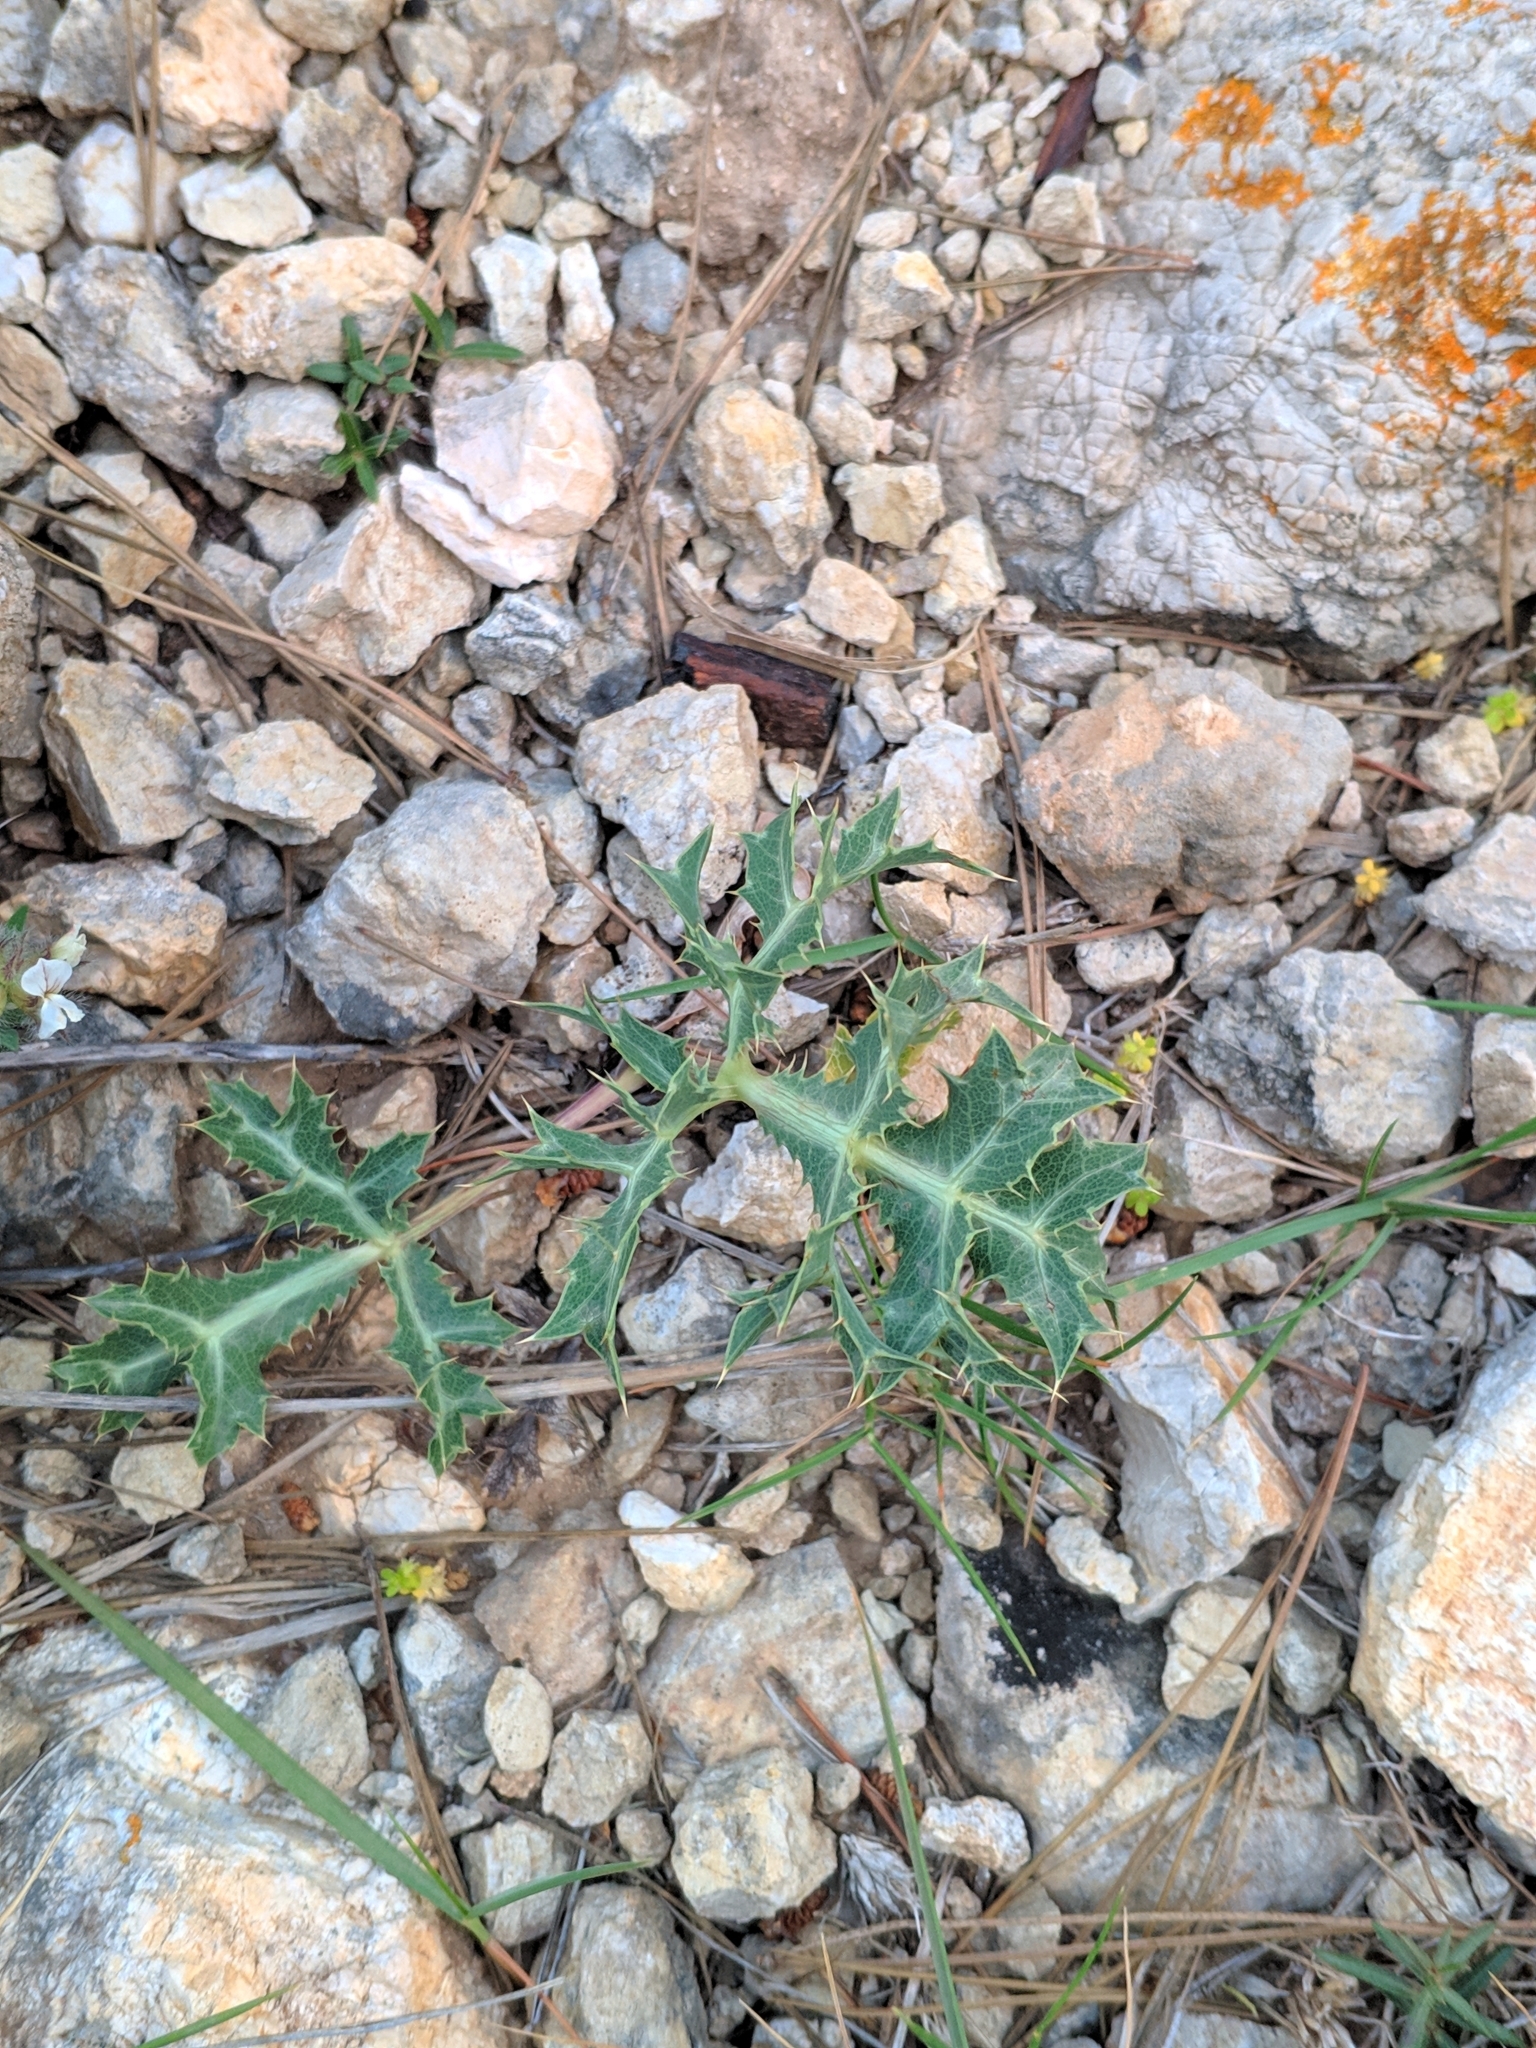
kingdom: Plantae
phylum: Tracheophyta
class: Magnoliopsida
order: Apiales
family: Apiaceae
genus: Eryngium
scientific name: Eryngium campestre
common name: Field eryngo
